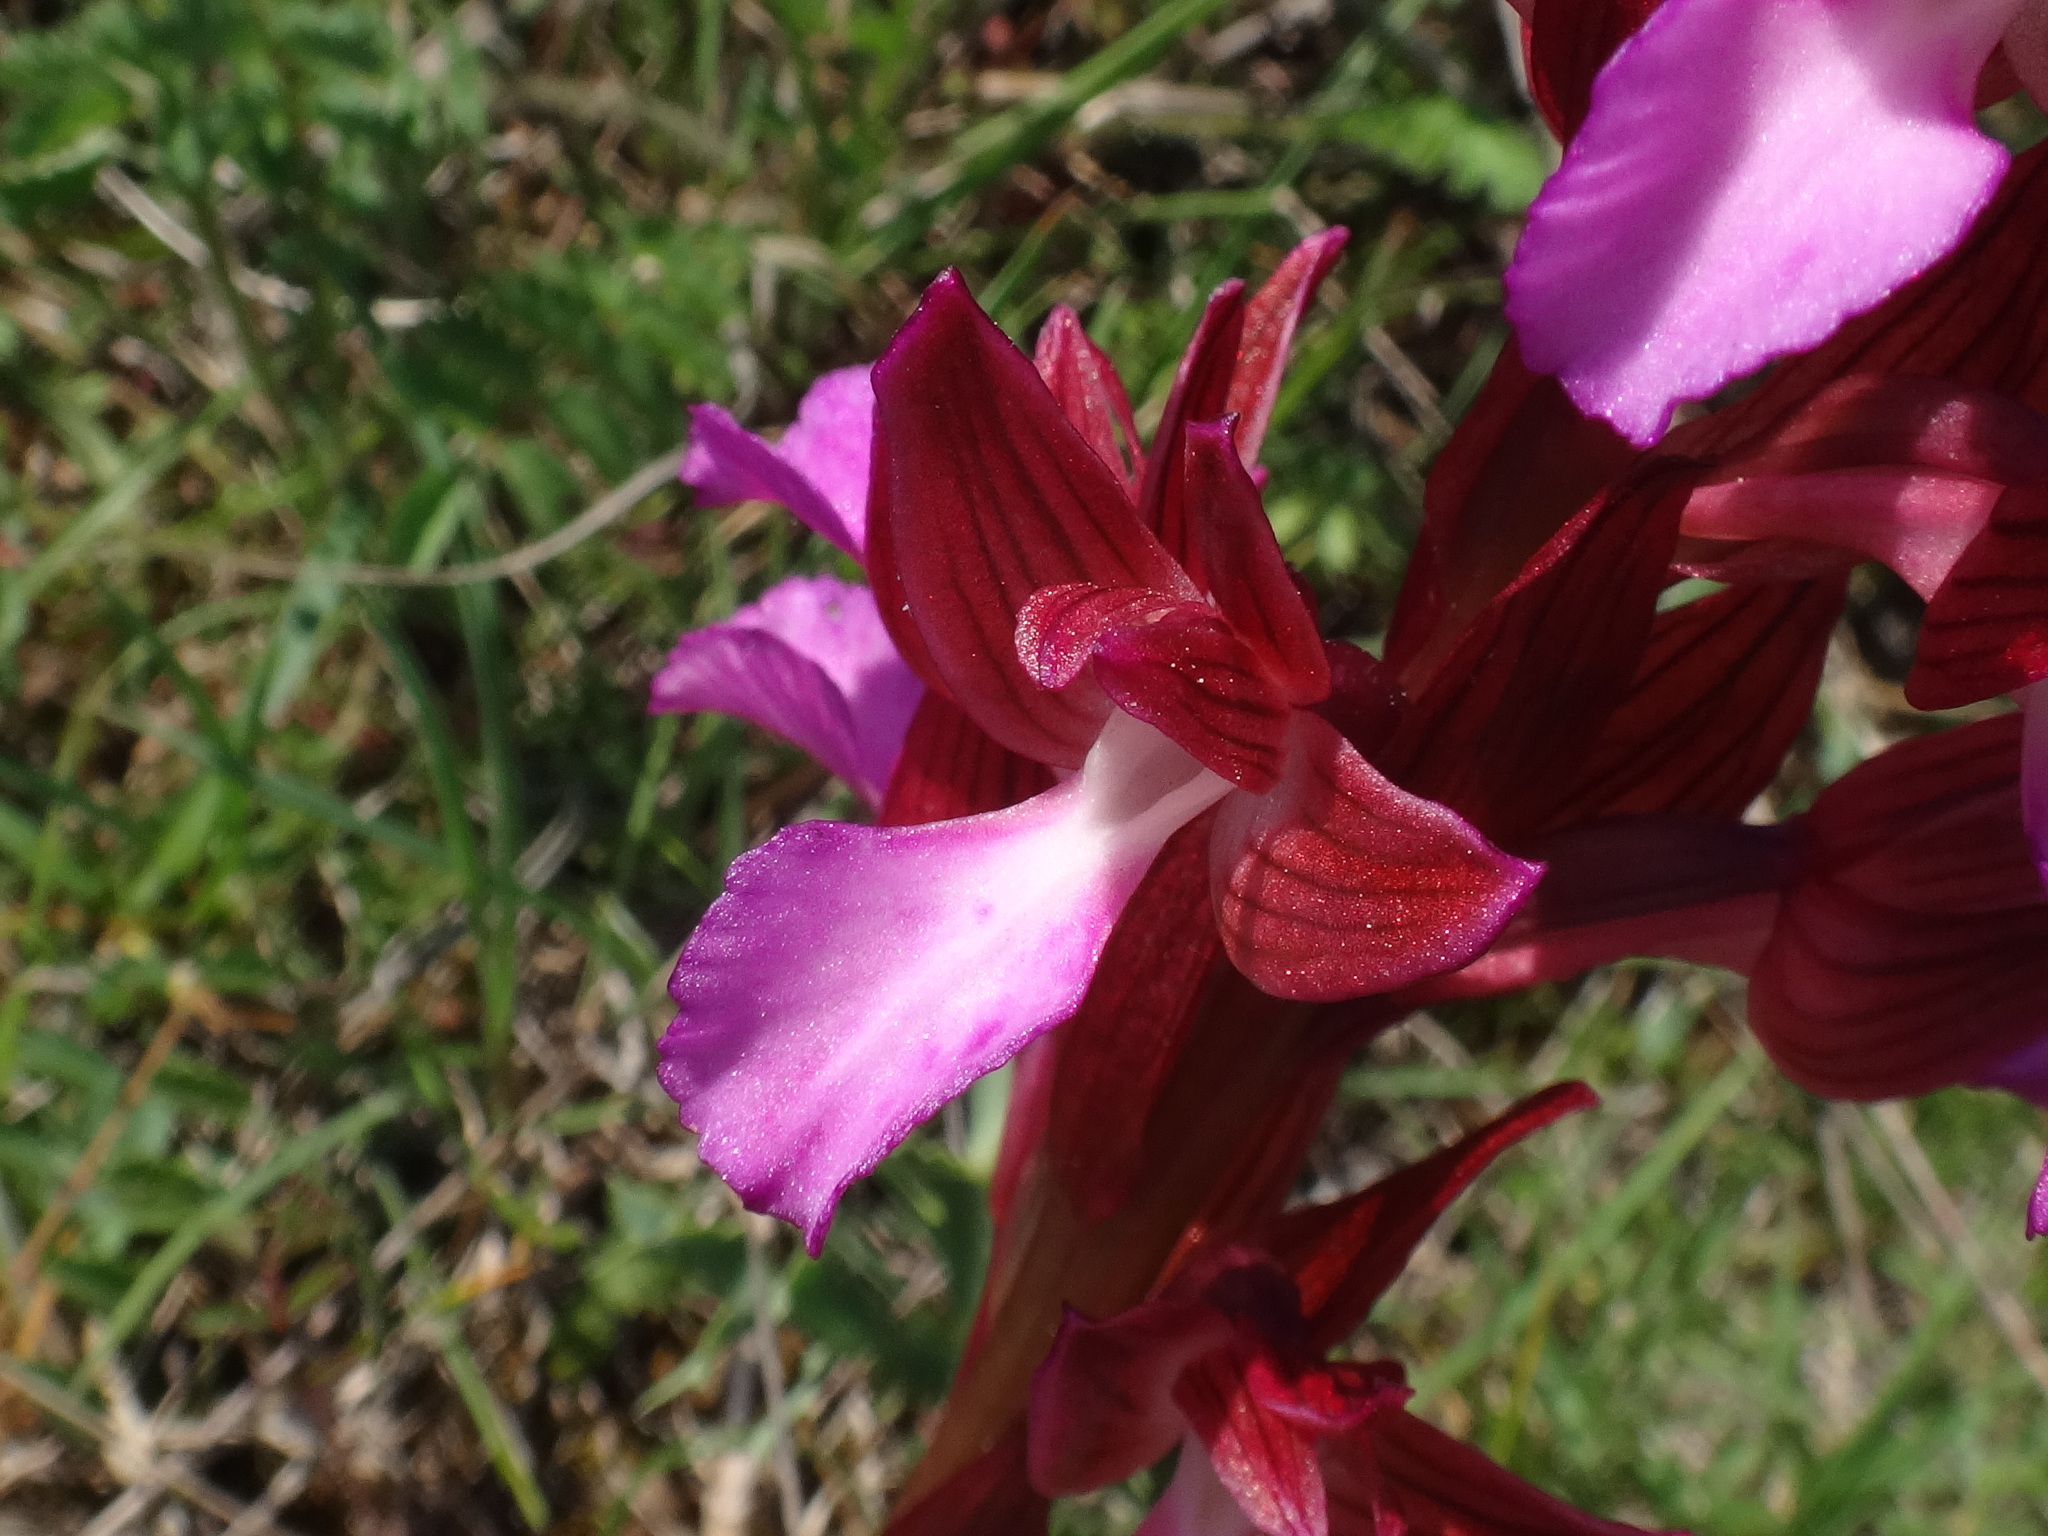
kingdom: Plantae
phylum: Tracheophyta
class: Liliopsida
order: Asparagales
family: Orchidaceae
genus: Anacamptis
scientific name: Anacamptis papilionacea
